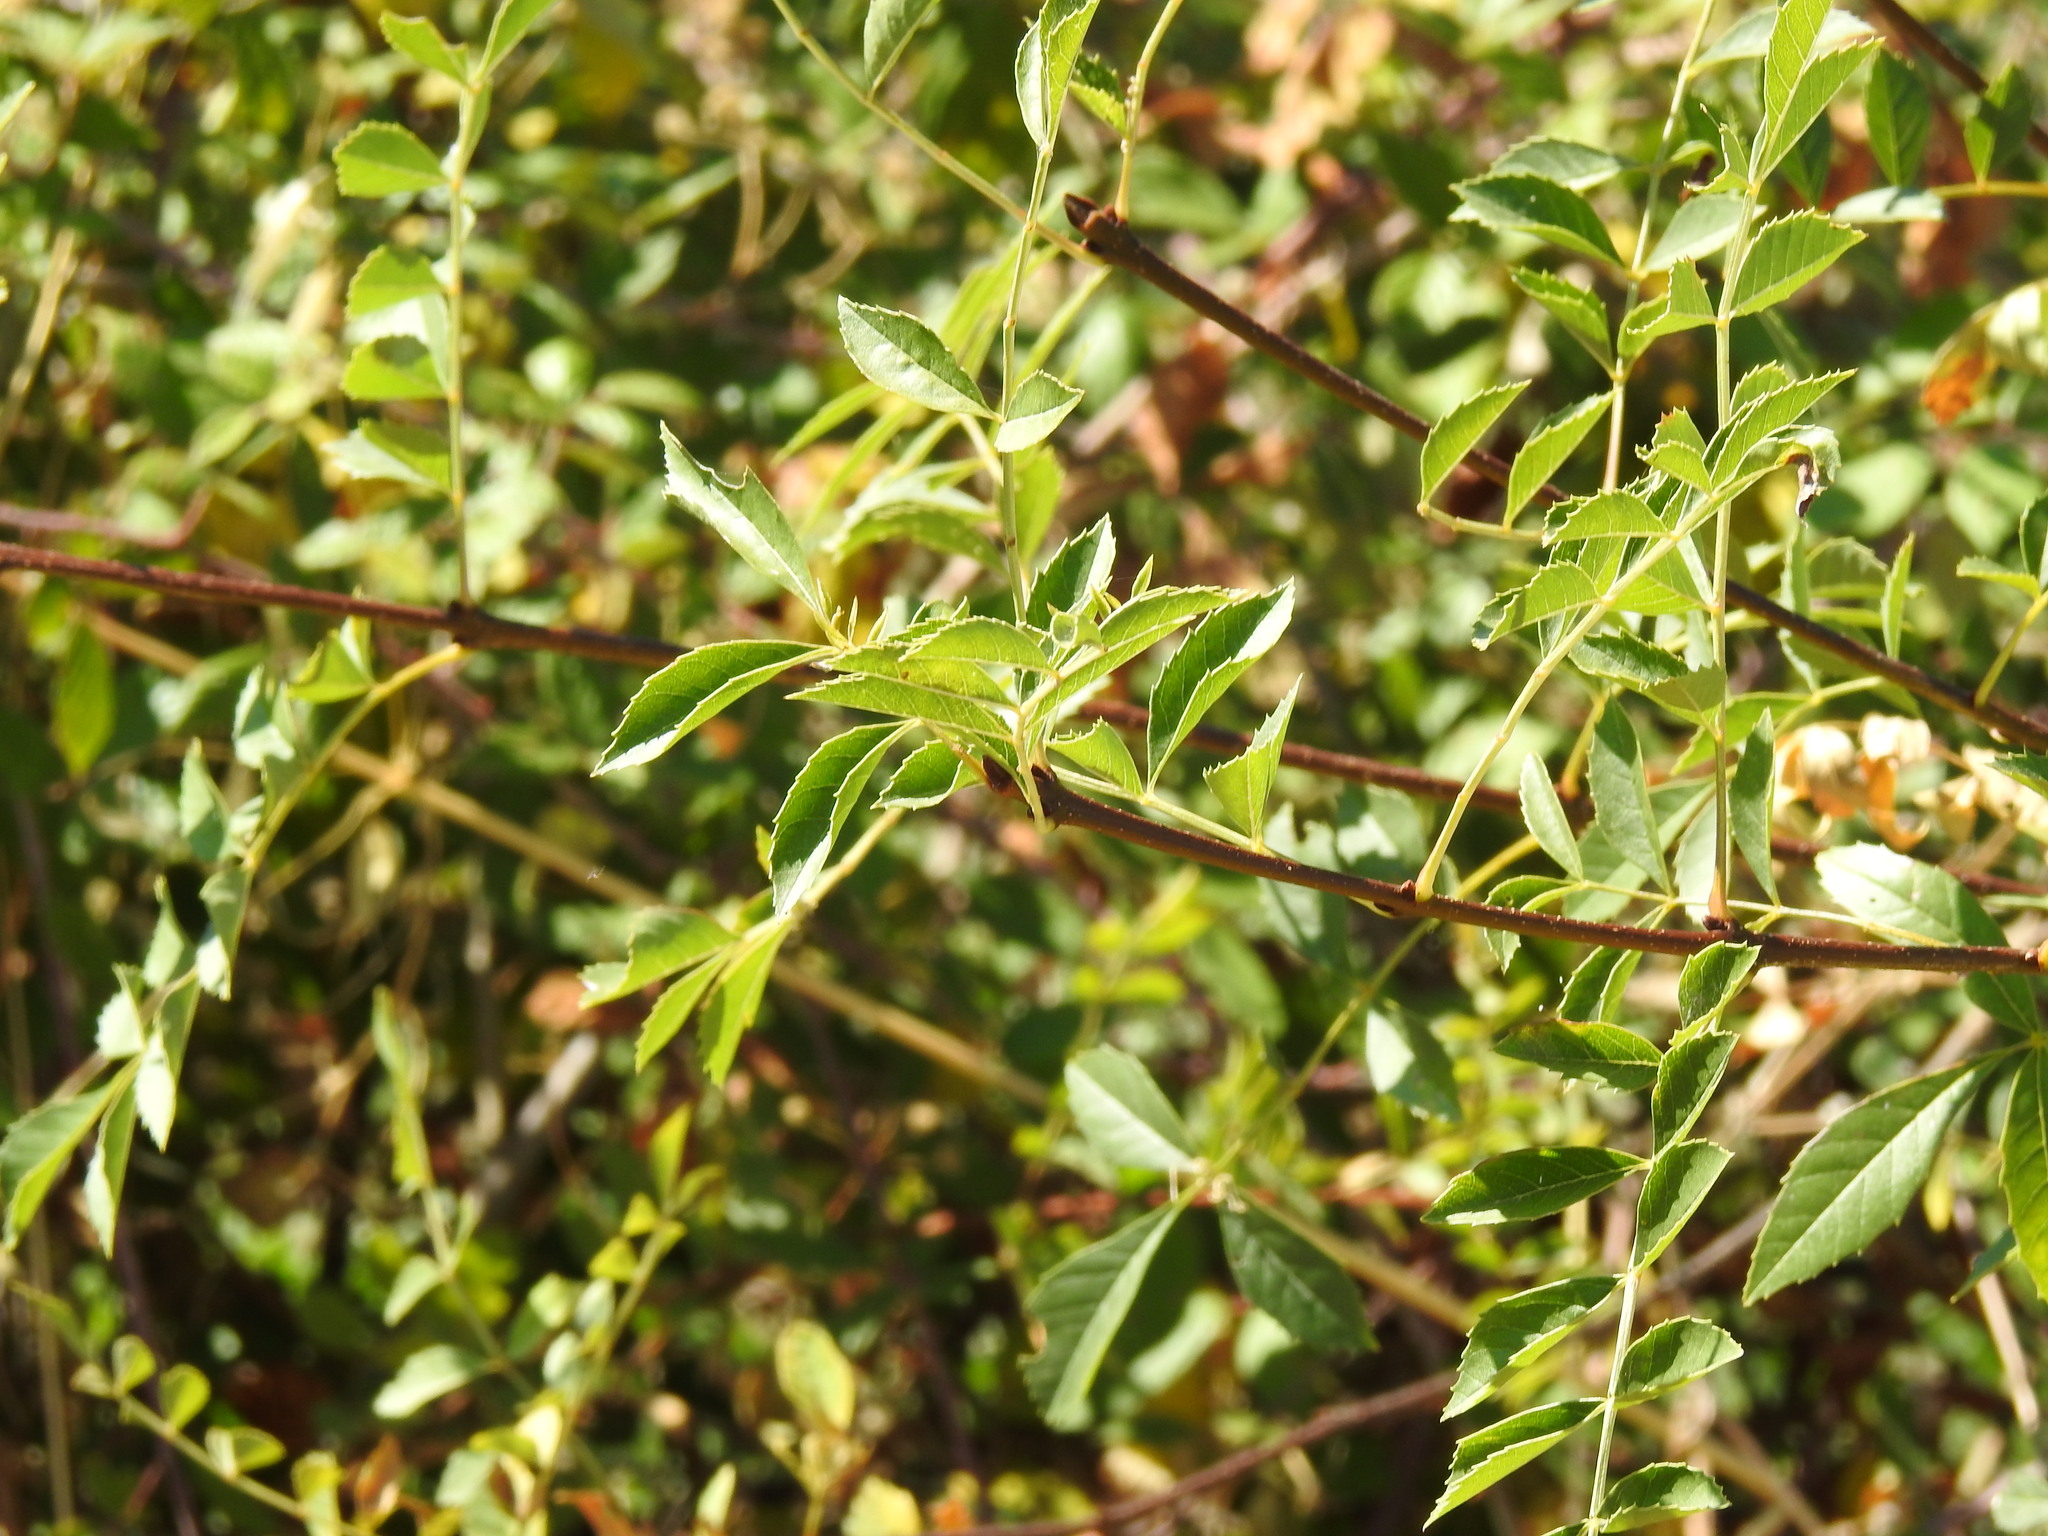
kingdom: Plantae
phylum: Tracheophyta
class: Magnoliopsida
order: Lamiales
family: Oleaceae
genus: Fraxinus
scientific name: Fraxinus angustifolia
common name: Narrow-leafed ash
